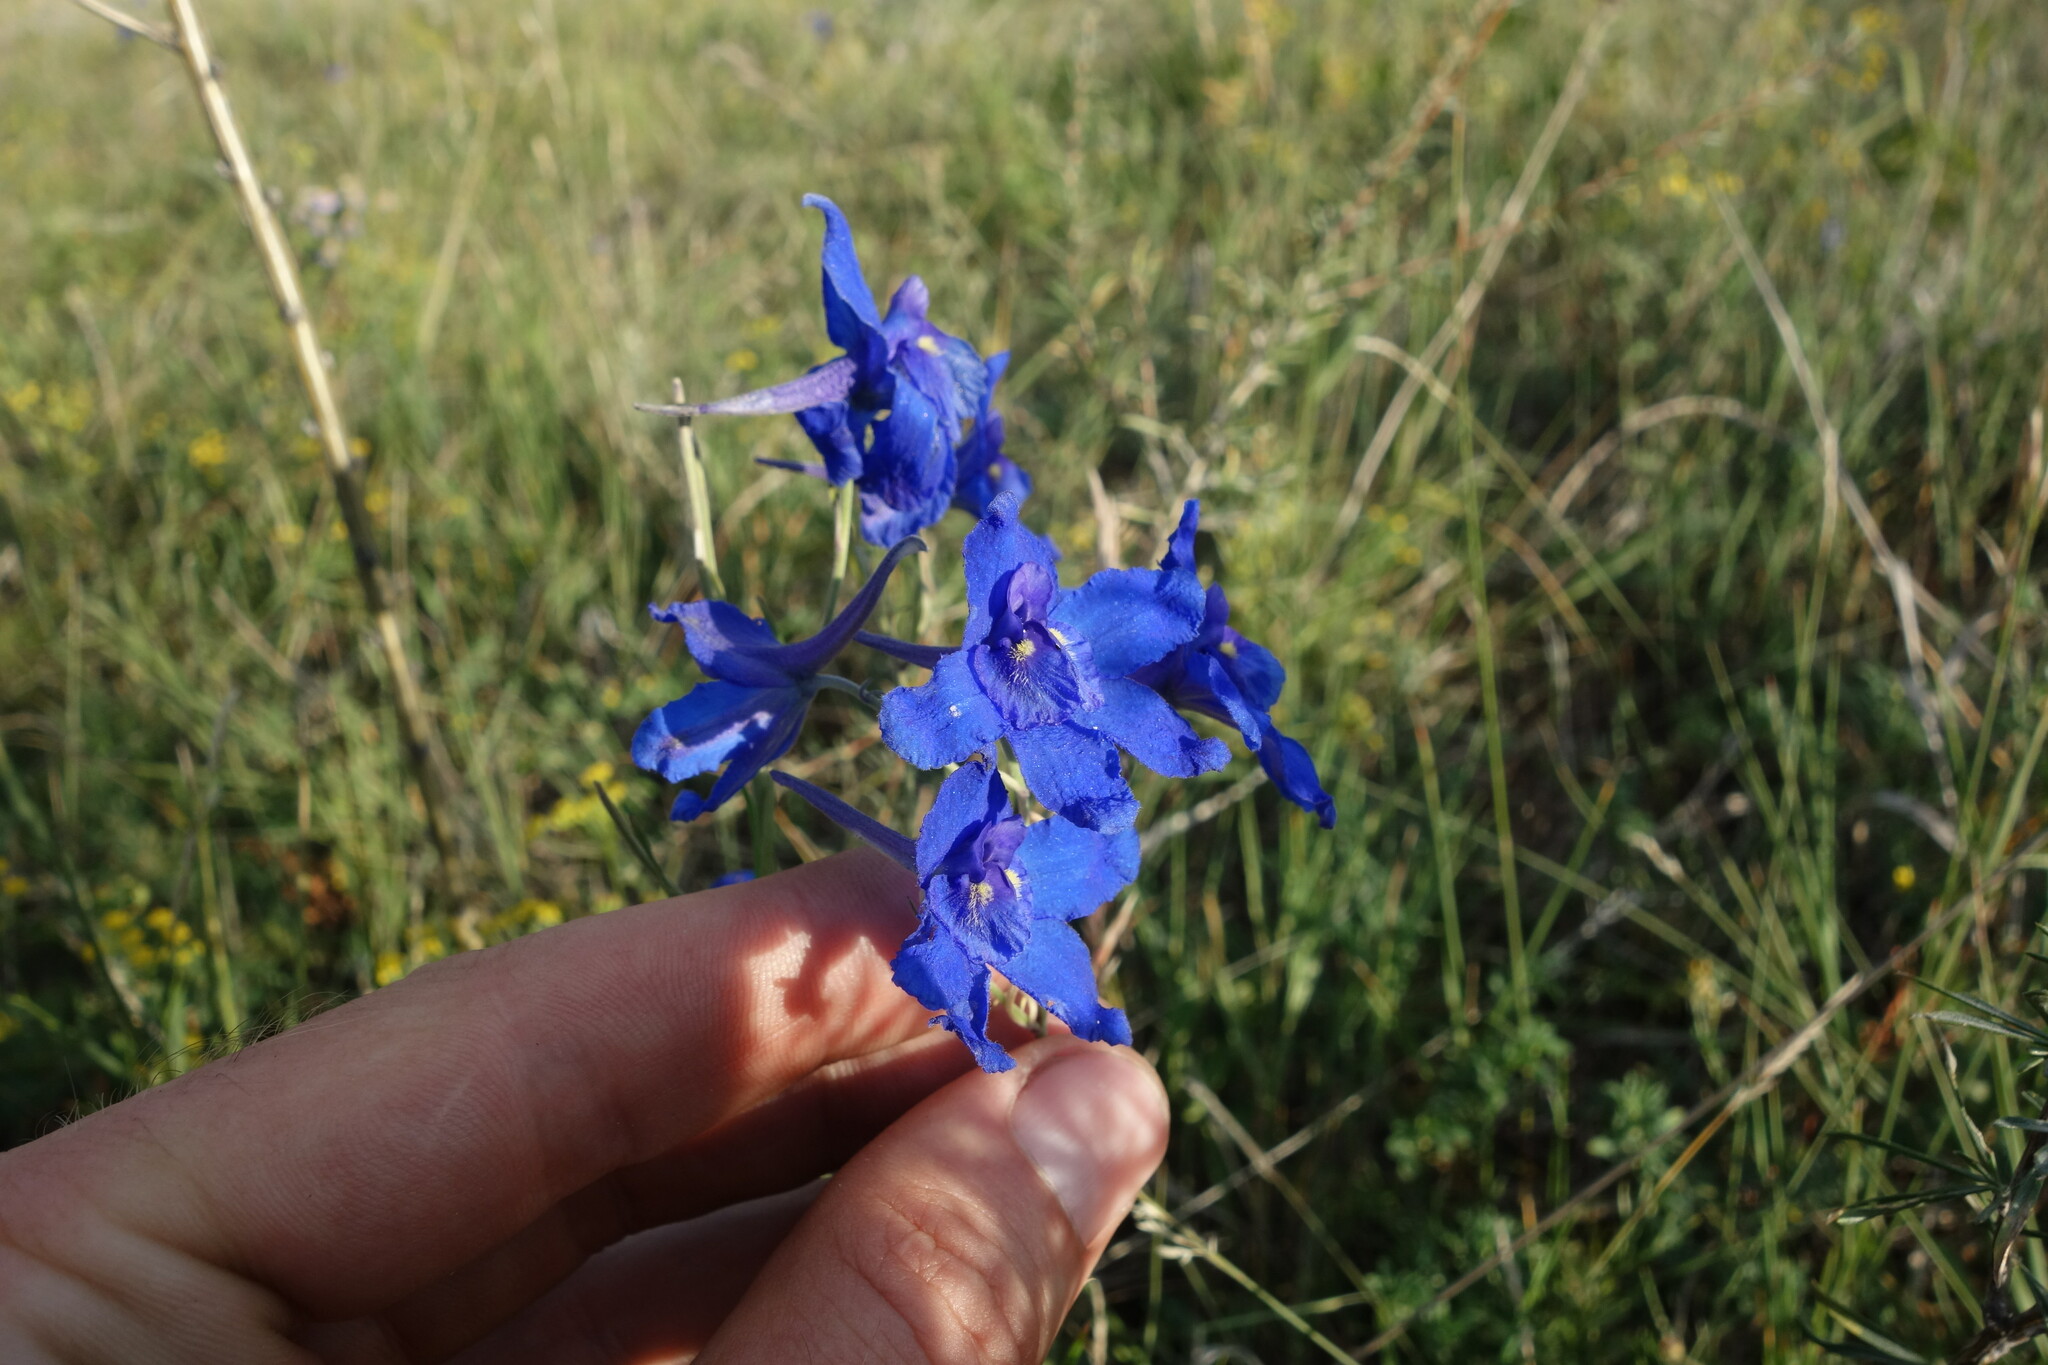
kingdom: Plantae
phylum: Tracheophyta
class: Magnoliopsida
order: Ranunculales
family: Ranunculaceae
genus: Delphinium
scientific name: Delphinium grandiflorum
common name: Siberian larkspur
